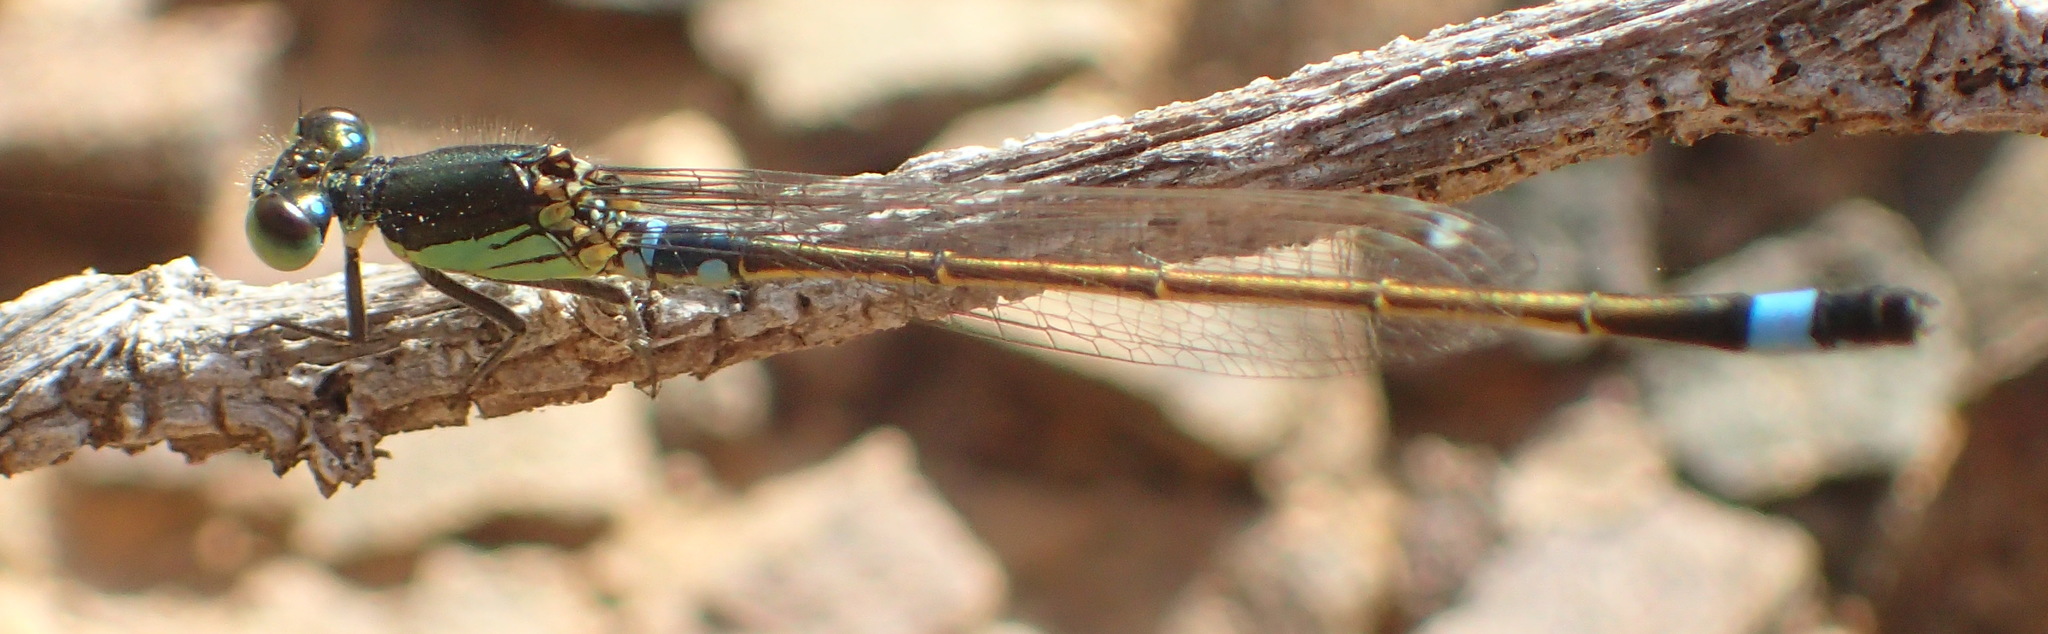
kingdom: Animalia
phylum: Arthropoda
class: Insecta
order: Odonata
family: Coenagrionidae
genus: Ischnura
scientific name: Ischnura senegalensis
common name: Tropical bluetail
